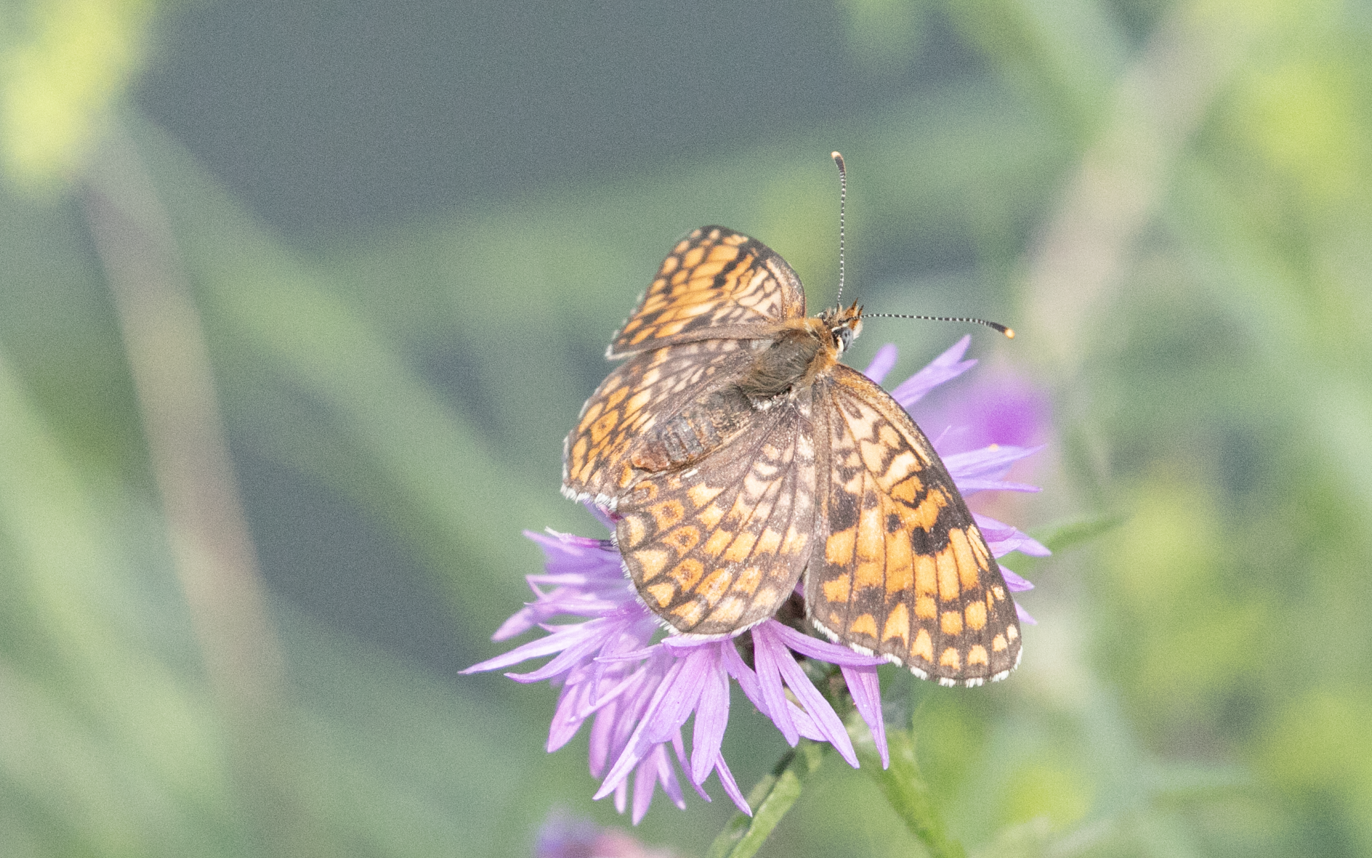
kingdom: Animalia
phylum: Arthropoda
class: Insecta
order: Lepidoptera
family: Nymphalidae
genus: Melitaea
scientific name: Melitaea phoebe
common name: Knapweed fritillary
